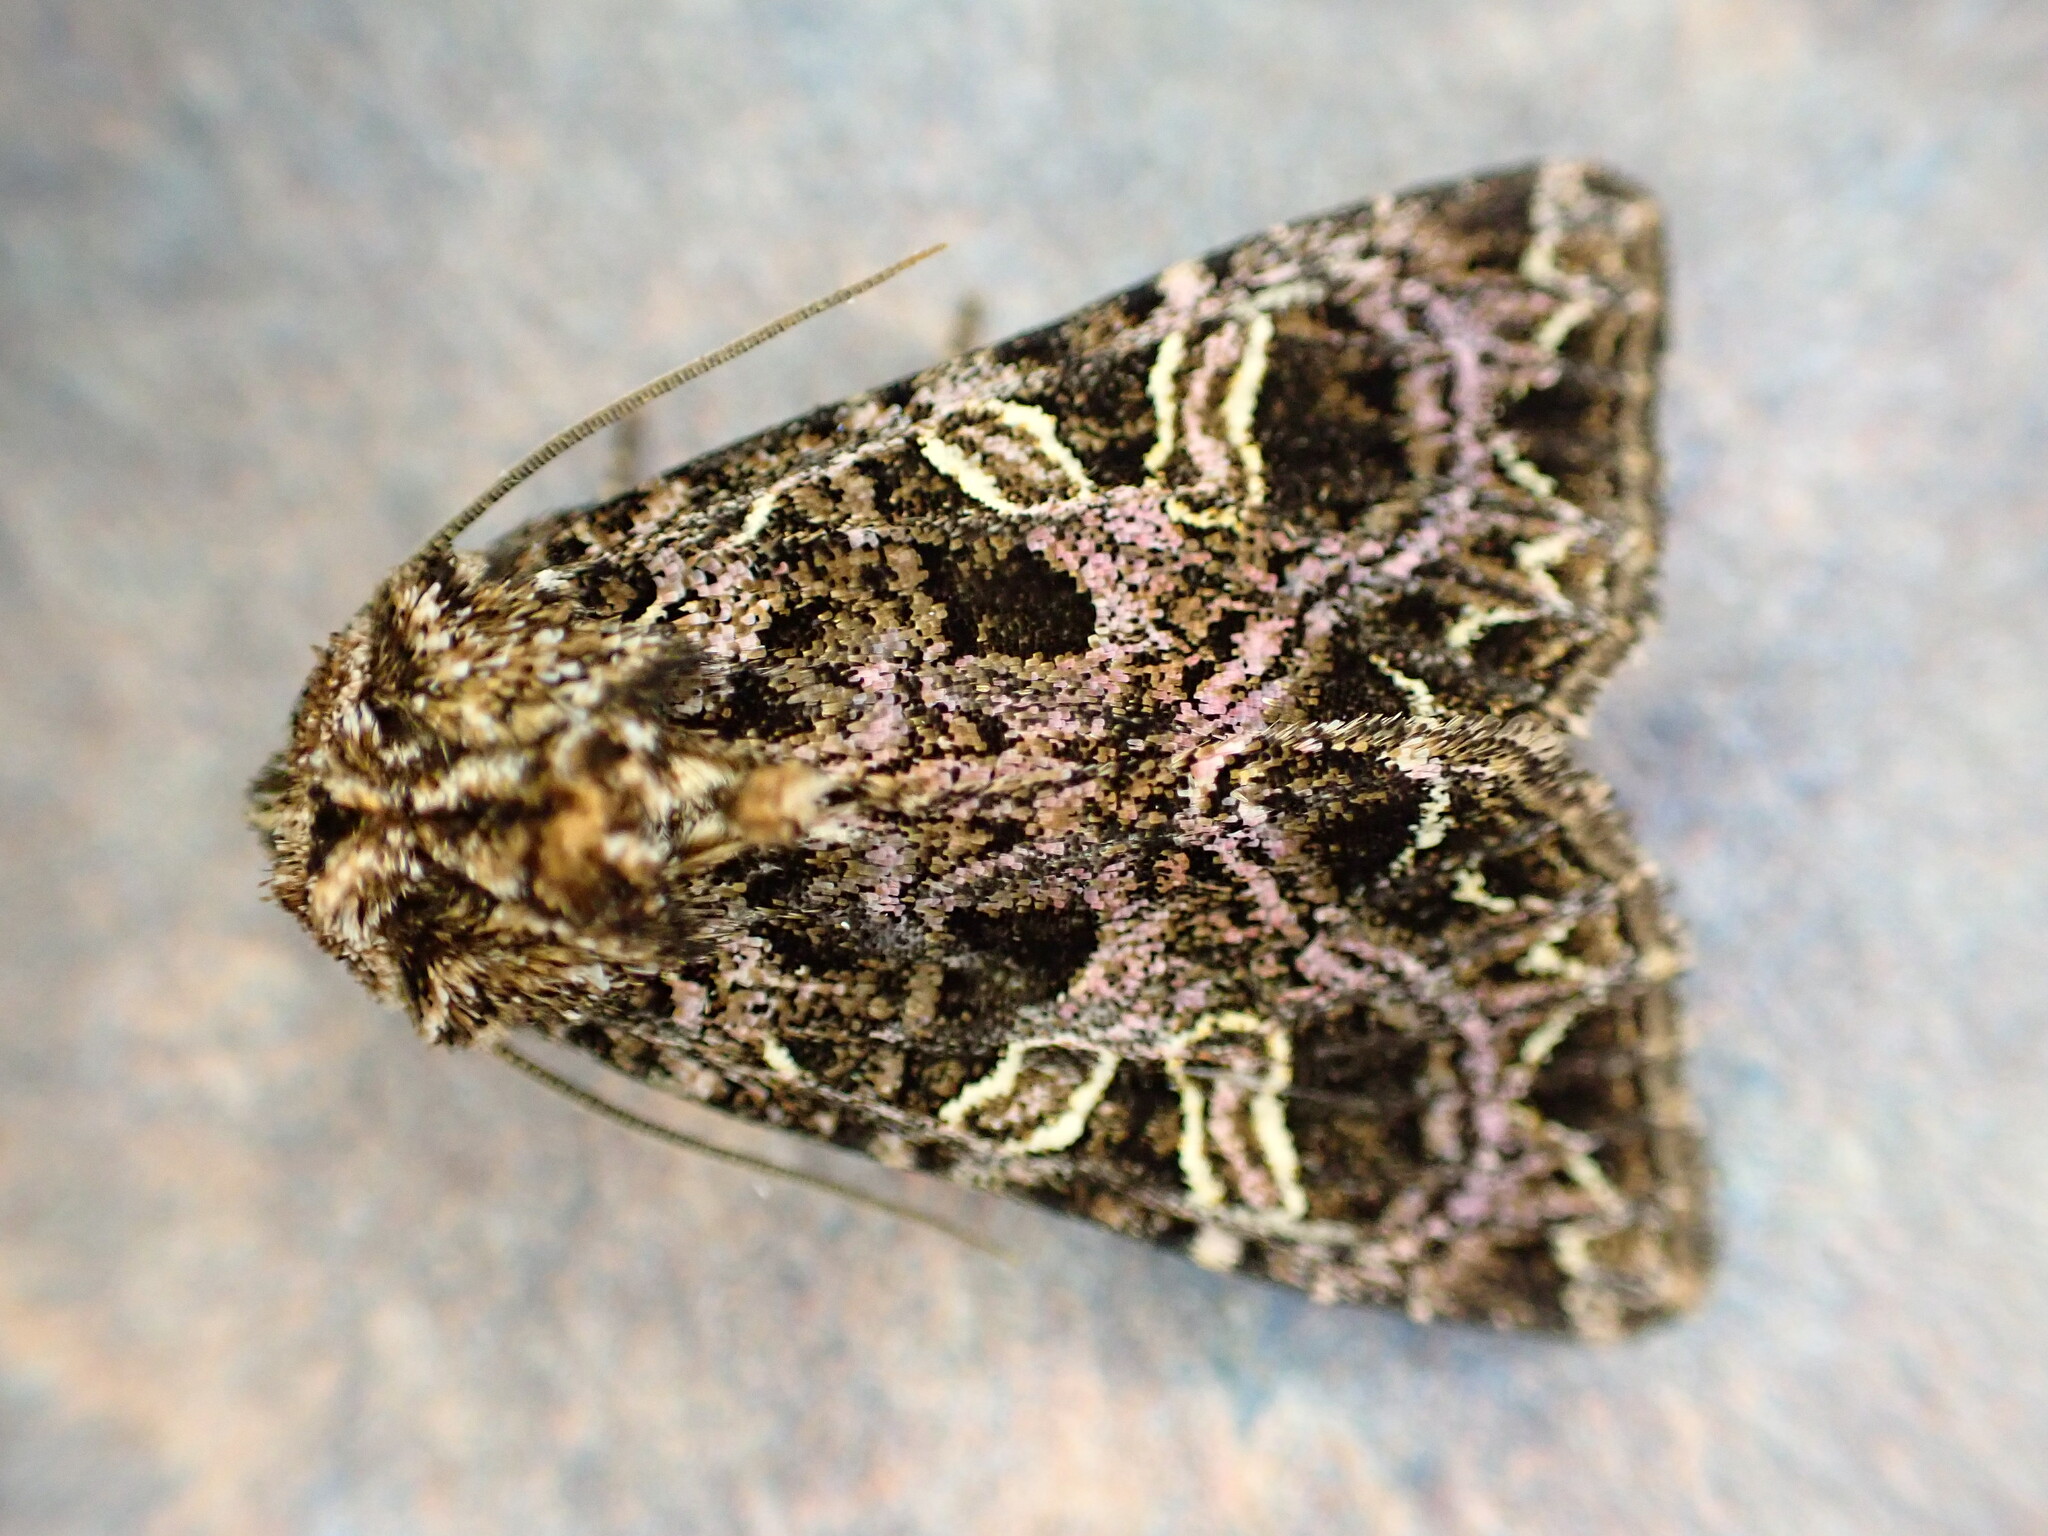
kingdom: Animalia
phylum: Arthropoda
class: Insecta
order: Lepidoptera
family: Noctuidae
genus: Sideridis
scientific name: Sideridis rivularis
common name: Campion
